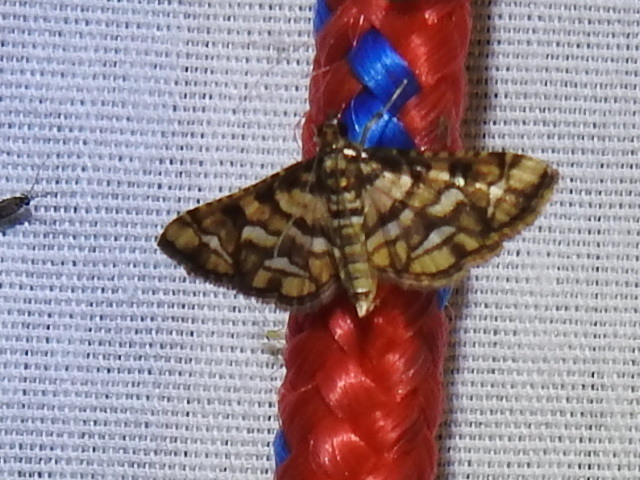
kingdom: Animalia
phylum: Arthropoda
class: Insecta
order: Lepidoptera
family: Crambidae
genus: Hileithia
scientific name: Hileithia magualis
